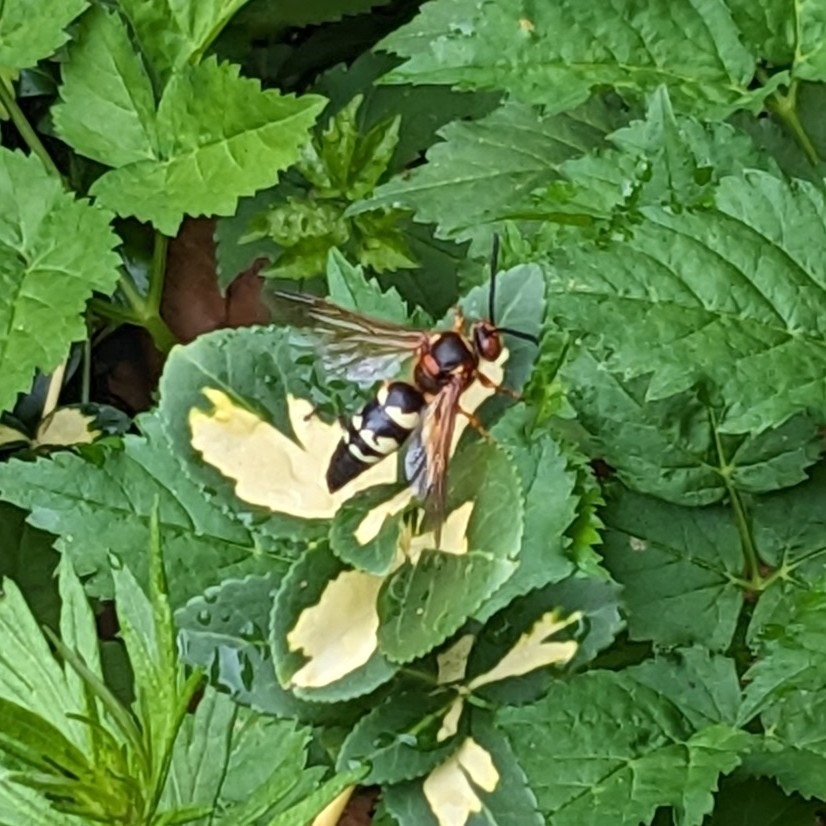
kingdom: Animalia
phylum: Arthropoda
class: Insecta
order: Hymenoptera
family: Crabronidae
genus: Sphecius
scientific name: Sphecius speciosus
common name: Cicada killer
